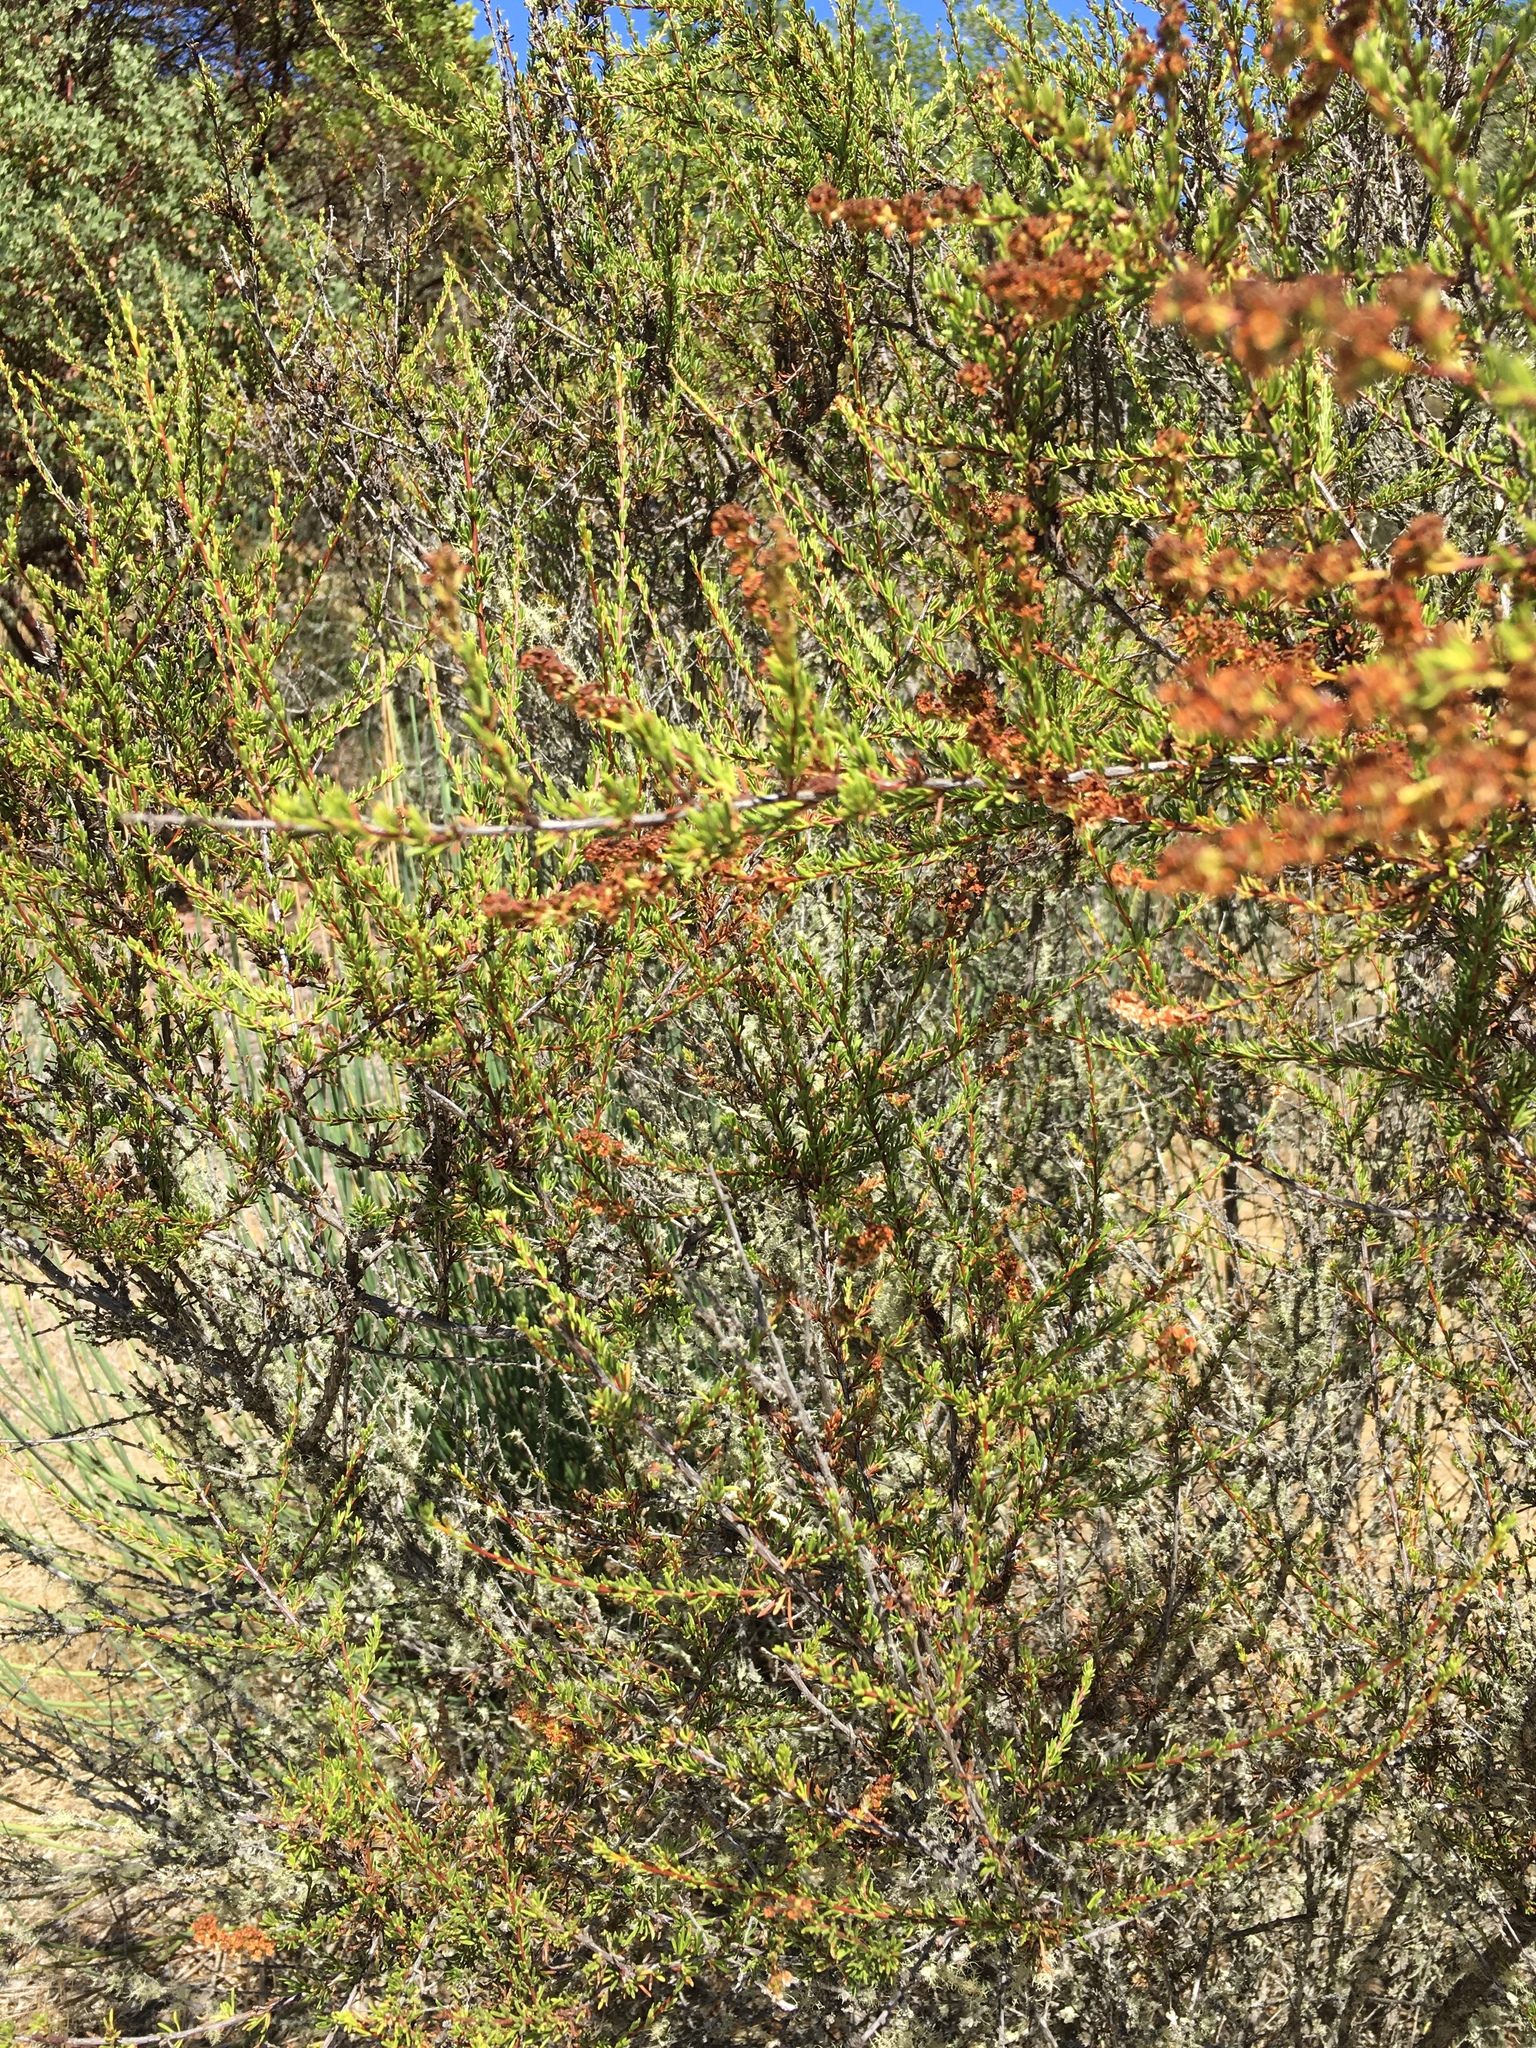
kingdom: Plantae
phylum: Tracheophyta
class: Magnoliopsida
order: Rosales
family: Rosaceae
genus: Adenostoma
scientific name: Adenostoma fasciculatum
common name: Chamise
